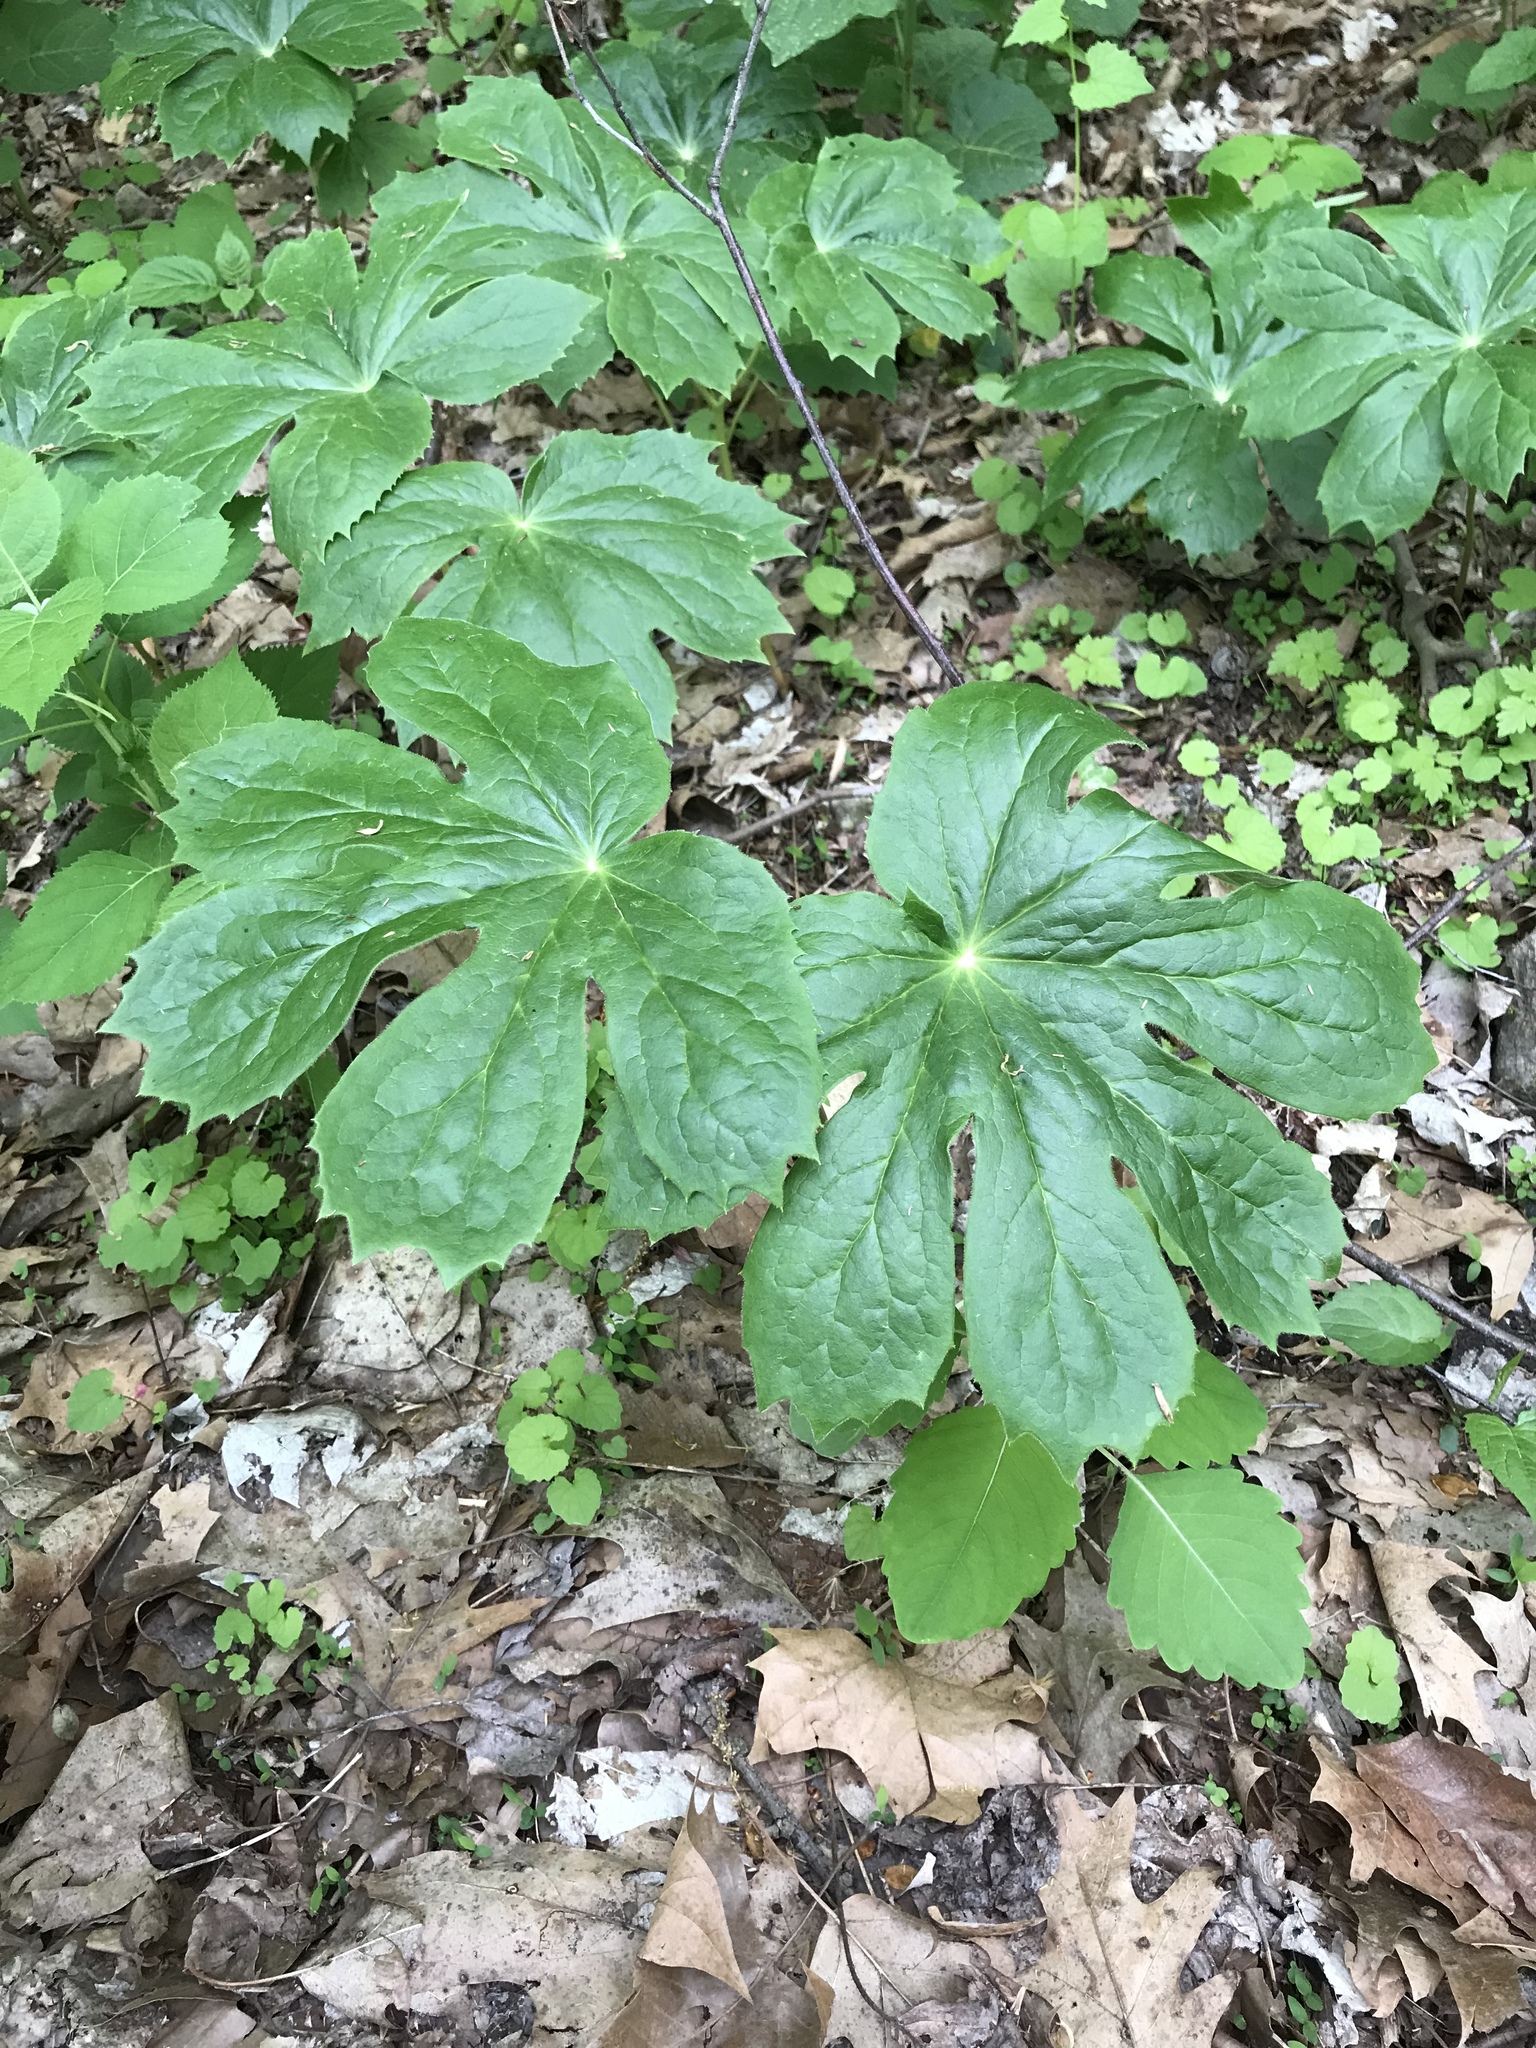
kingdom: Plantae
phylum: Tracheophyta
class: Magnoliopsida
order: Ranunculales
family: Berberidaceae
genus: Podophyllum
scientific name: Podophyllum peltatum
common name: Wild mandrake
